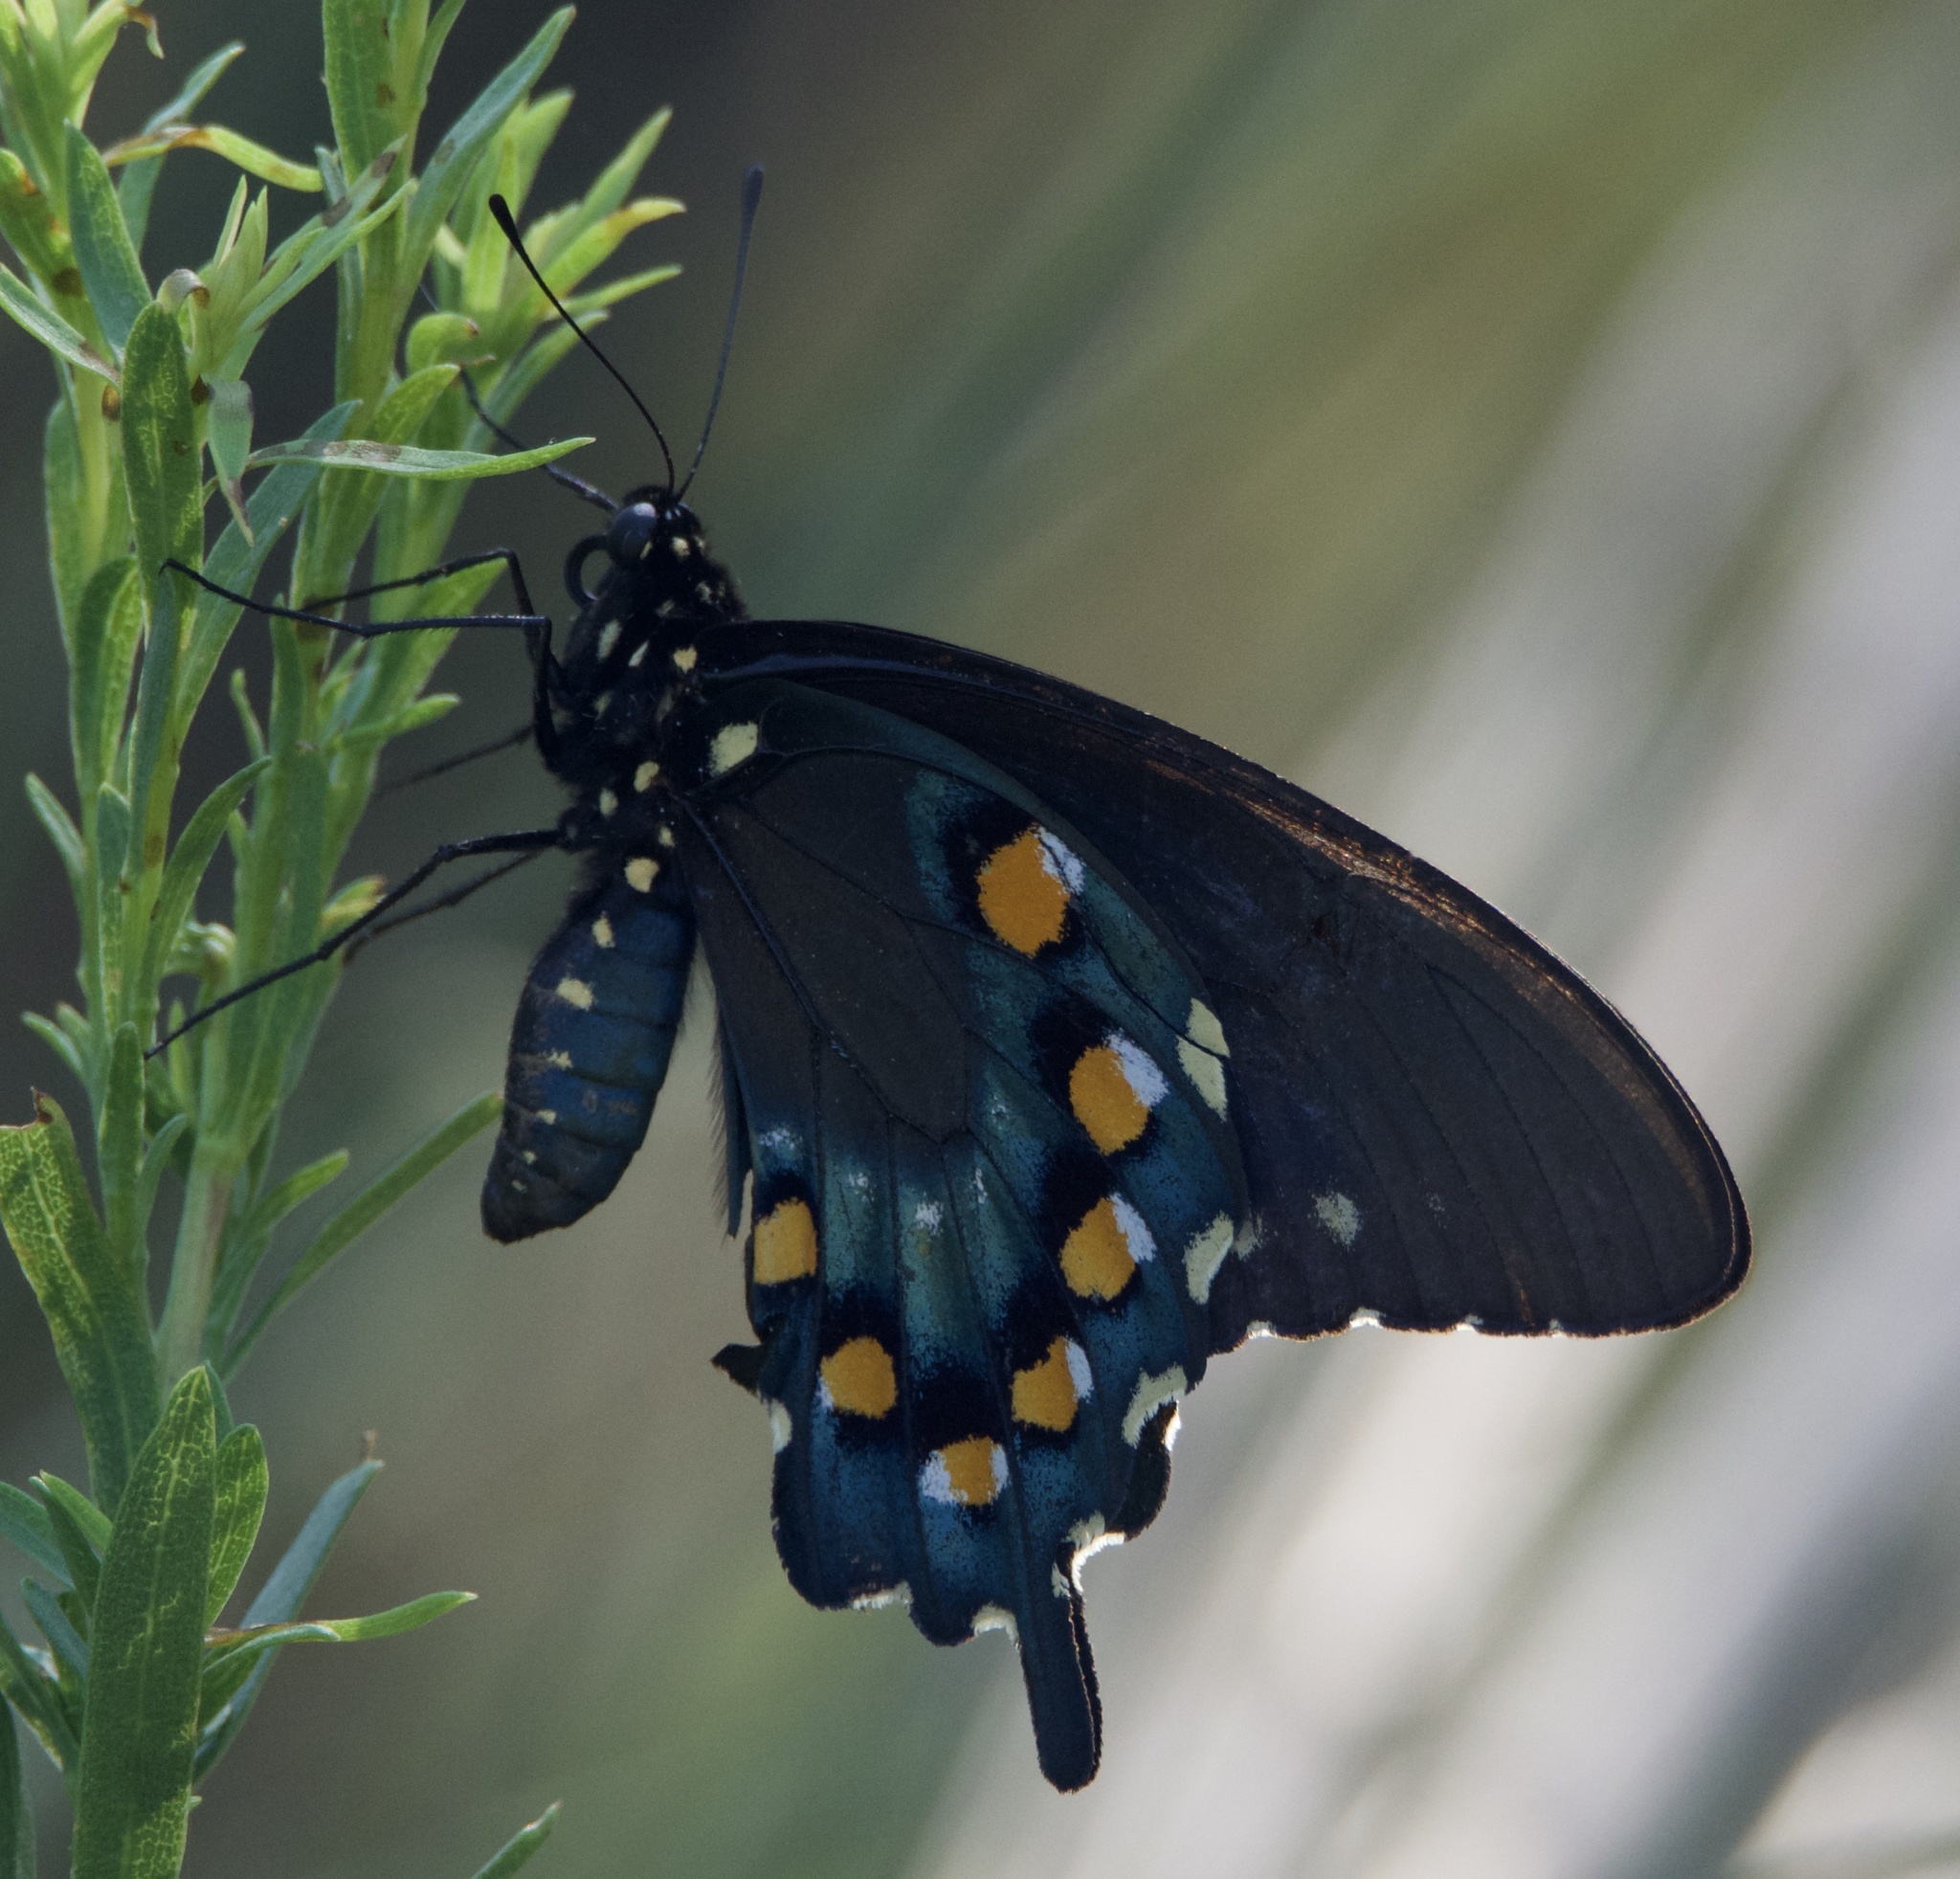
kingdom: Animalia
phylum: Arthropoda
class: Insecta
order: Lepidoptera
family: Papilionidae
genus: Battus
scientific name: Battus philenor
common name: Pipevine swallowtail
